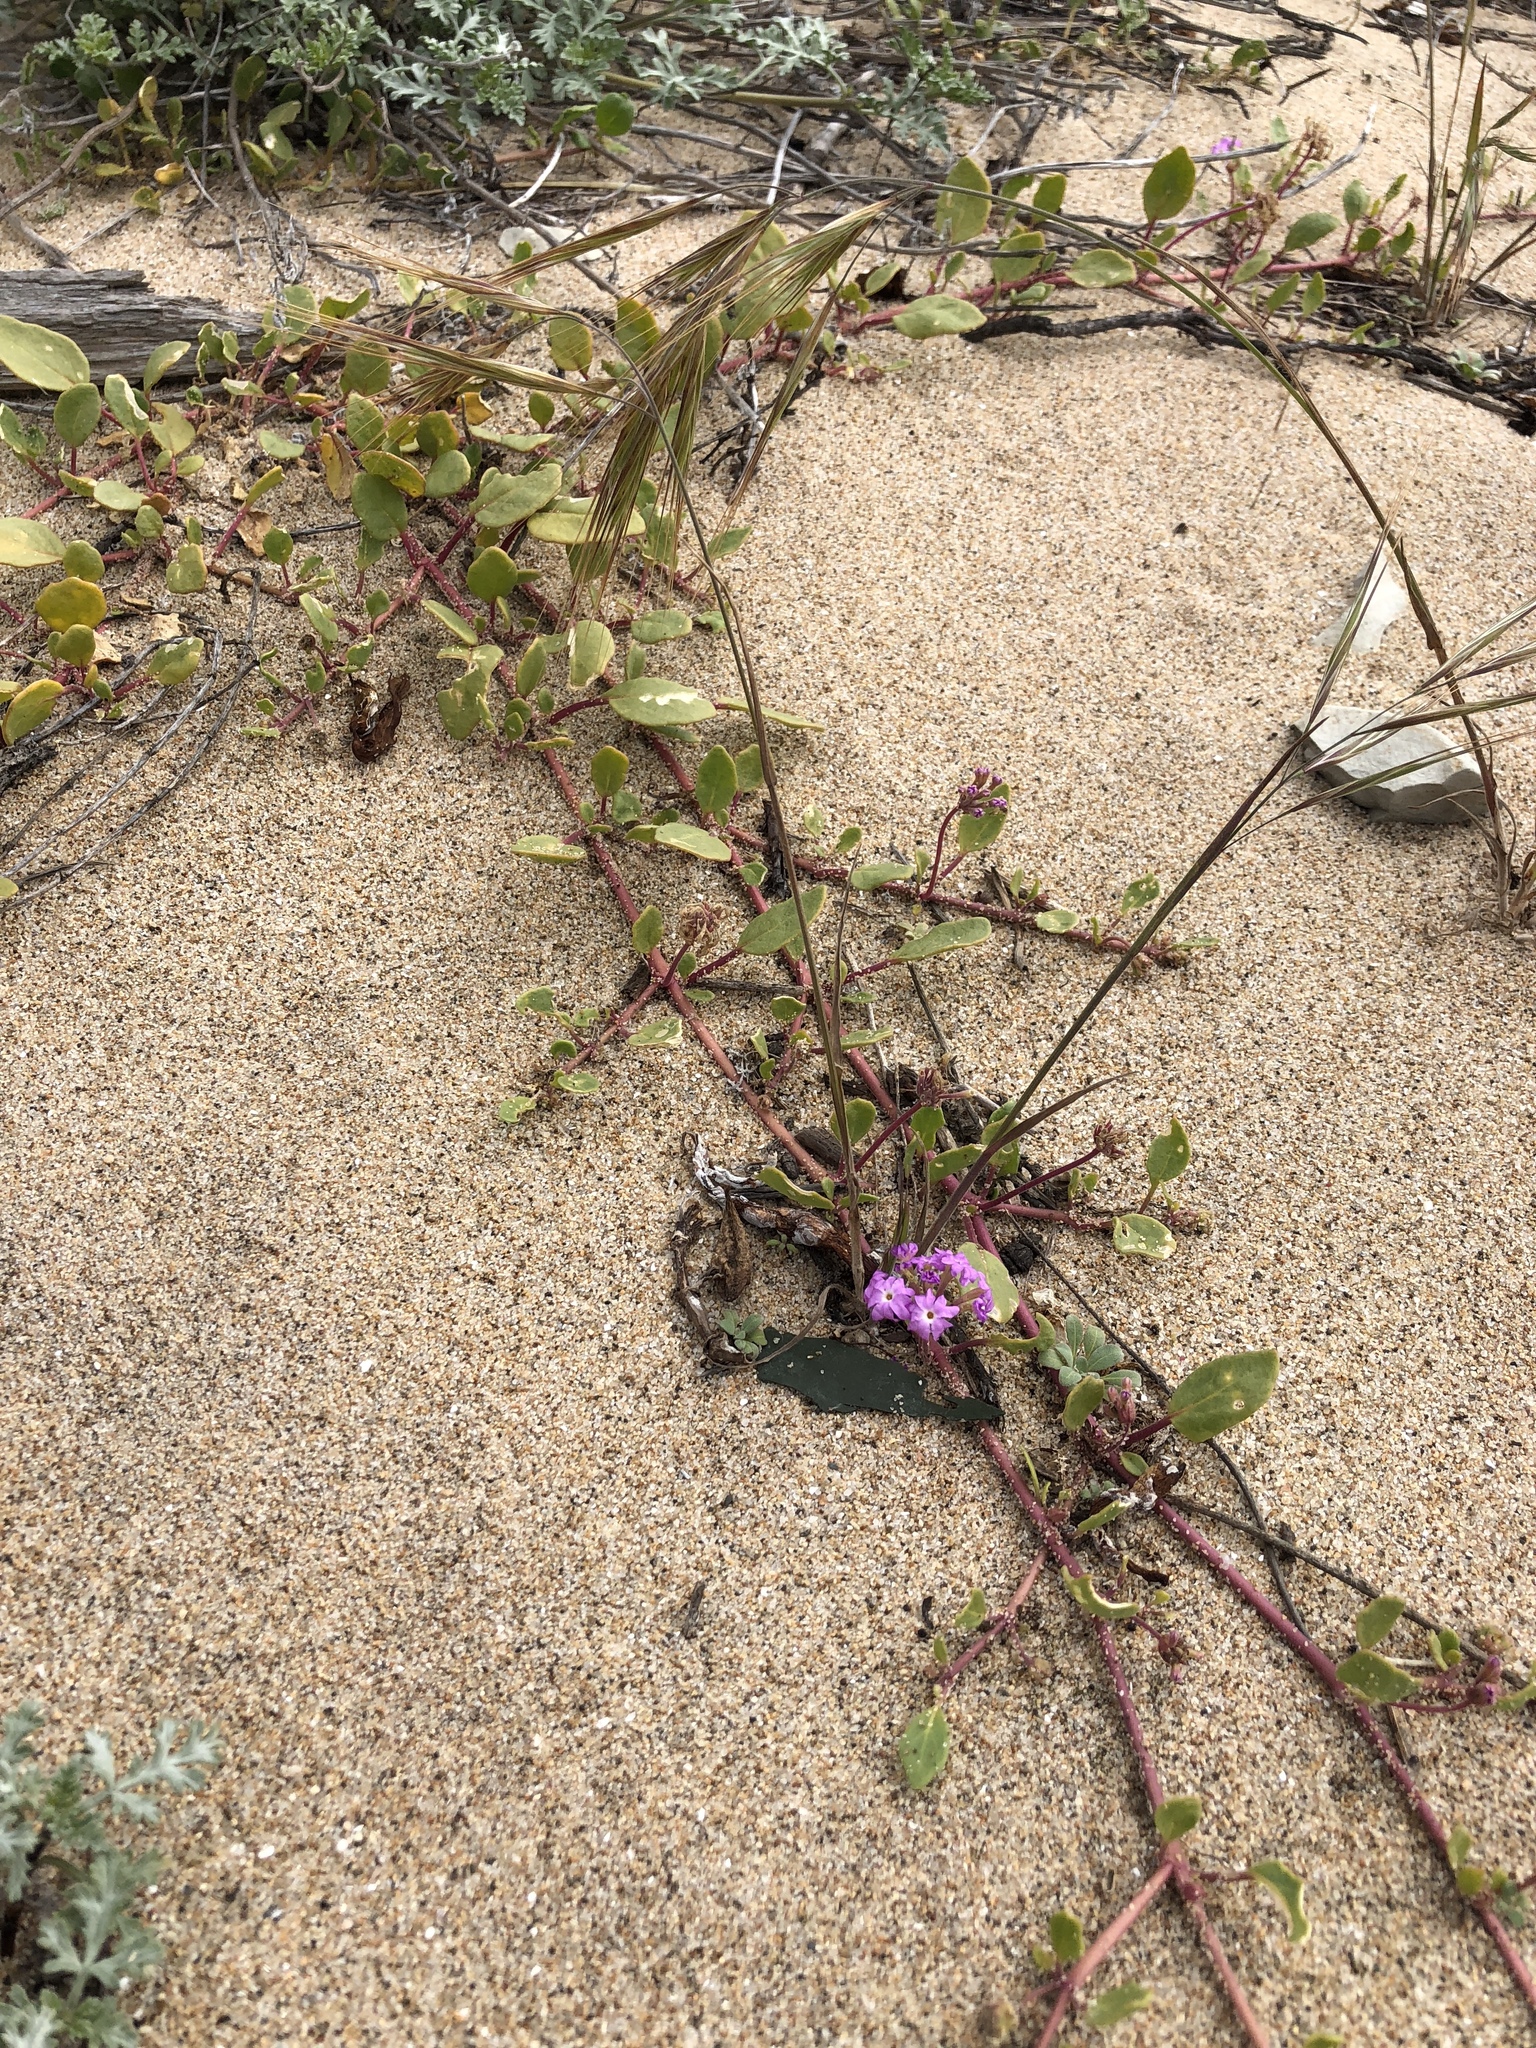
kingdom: Plantae
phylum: Tracheophyta
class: Magnoliopsida
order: Caryophyllales
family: Nyctaginaceae
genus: Abronia
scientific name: Abronia umbellata
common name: Sand-verbena
